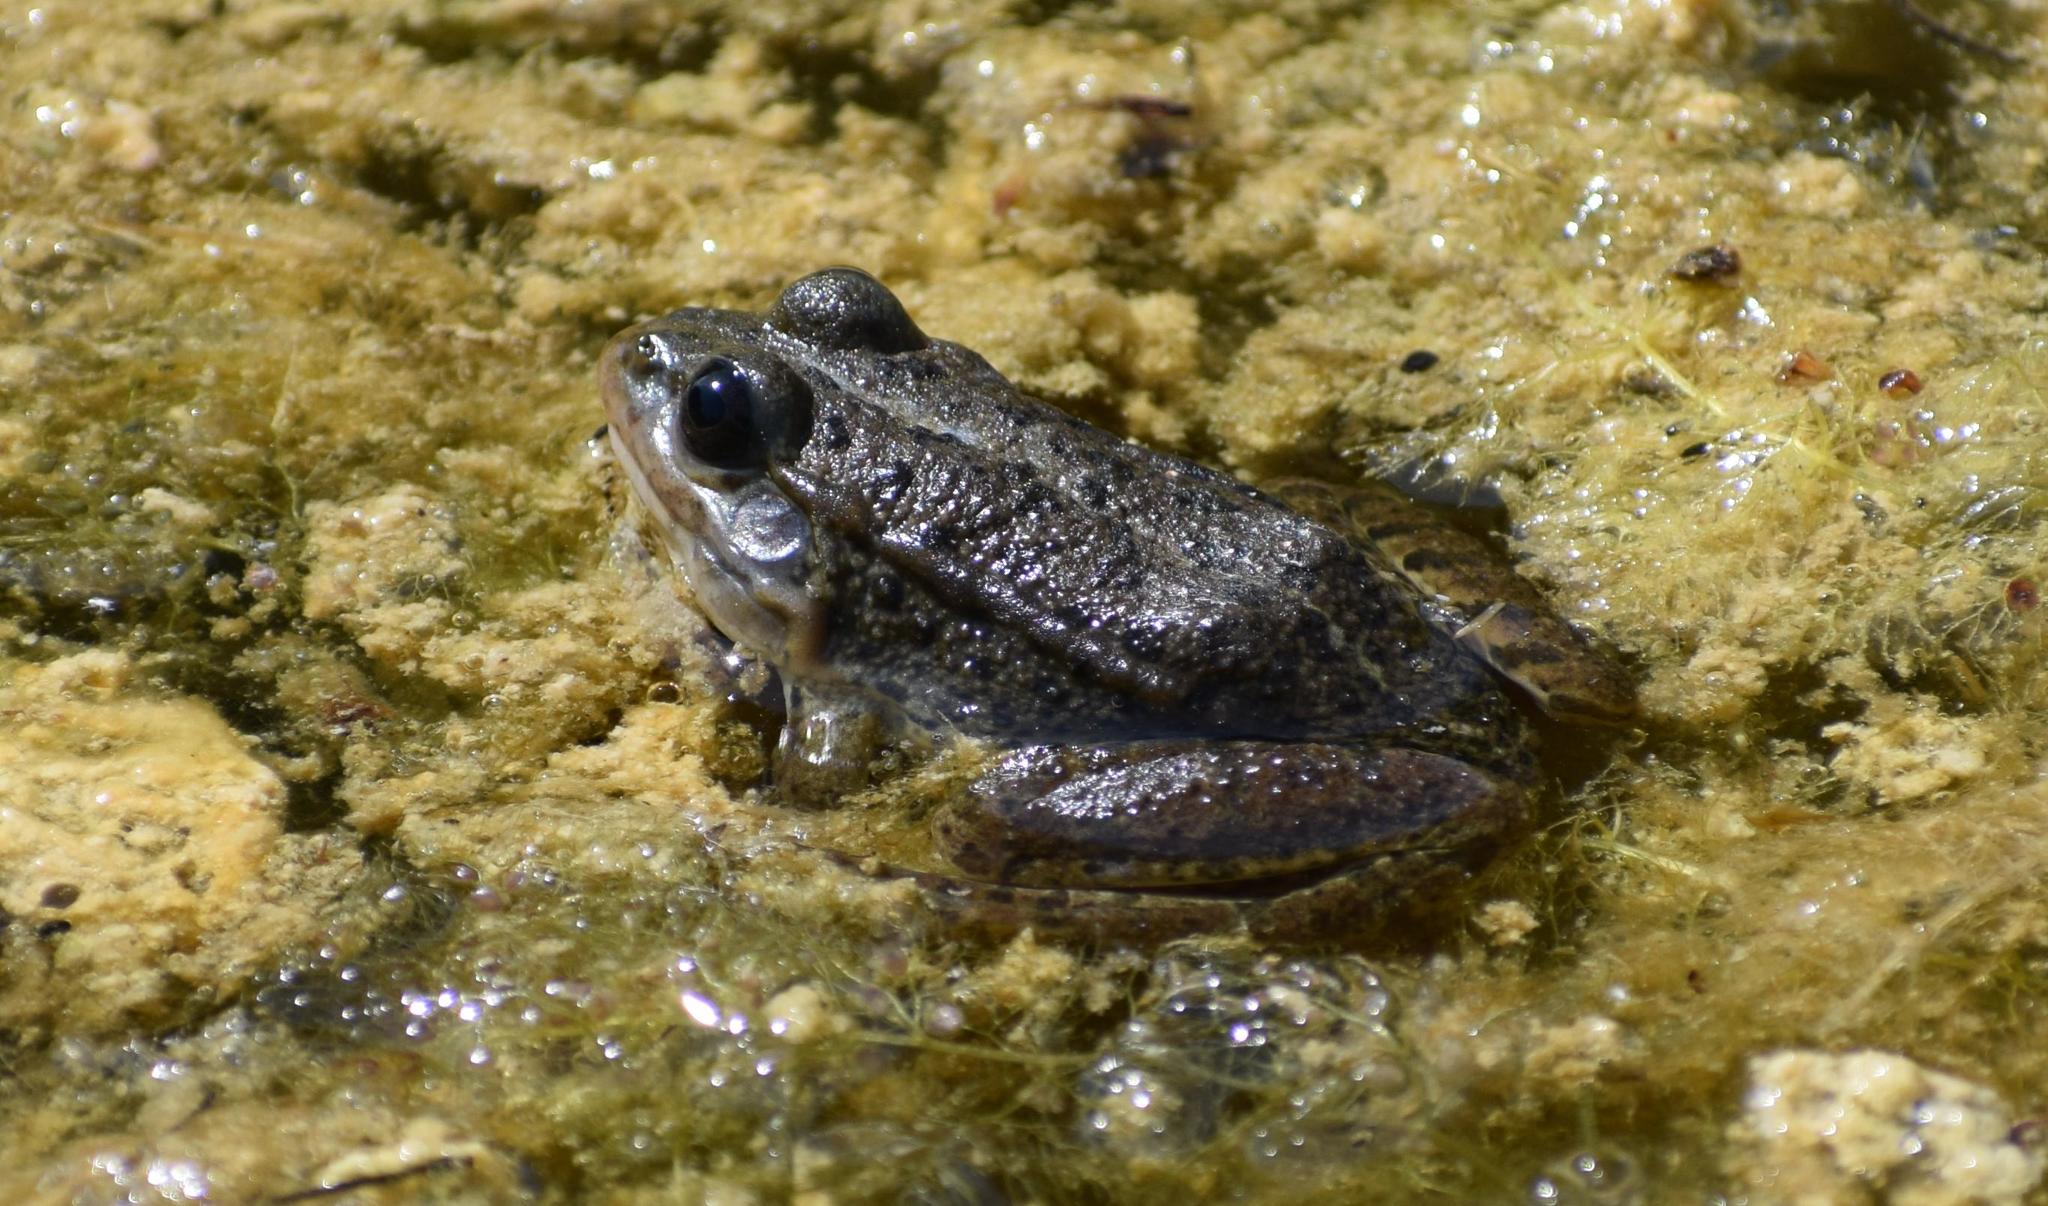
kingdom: Animalia
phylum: Chordata
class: Amphibia
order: Anura
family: Ranidae
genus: Pelophylax
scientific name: Pelophylax
